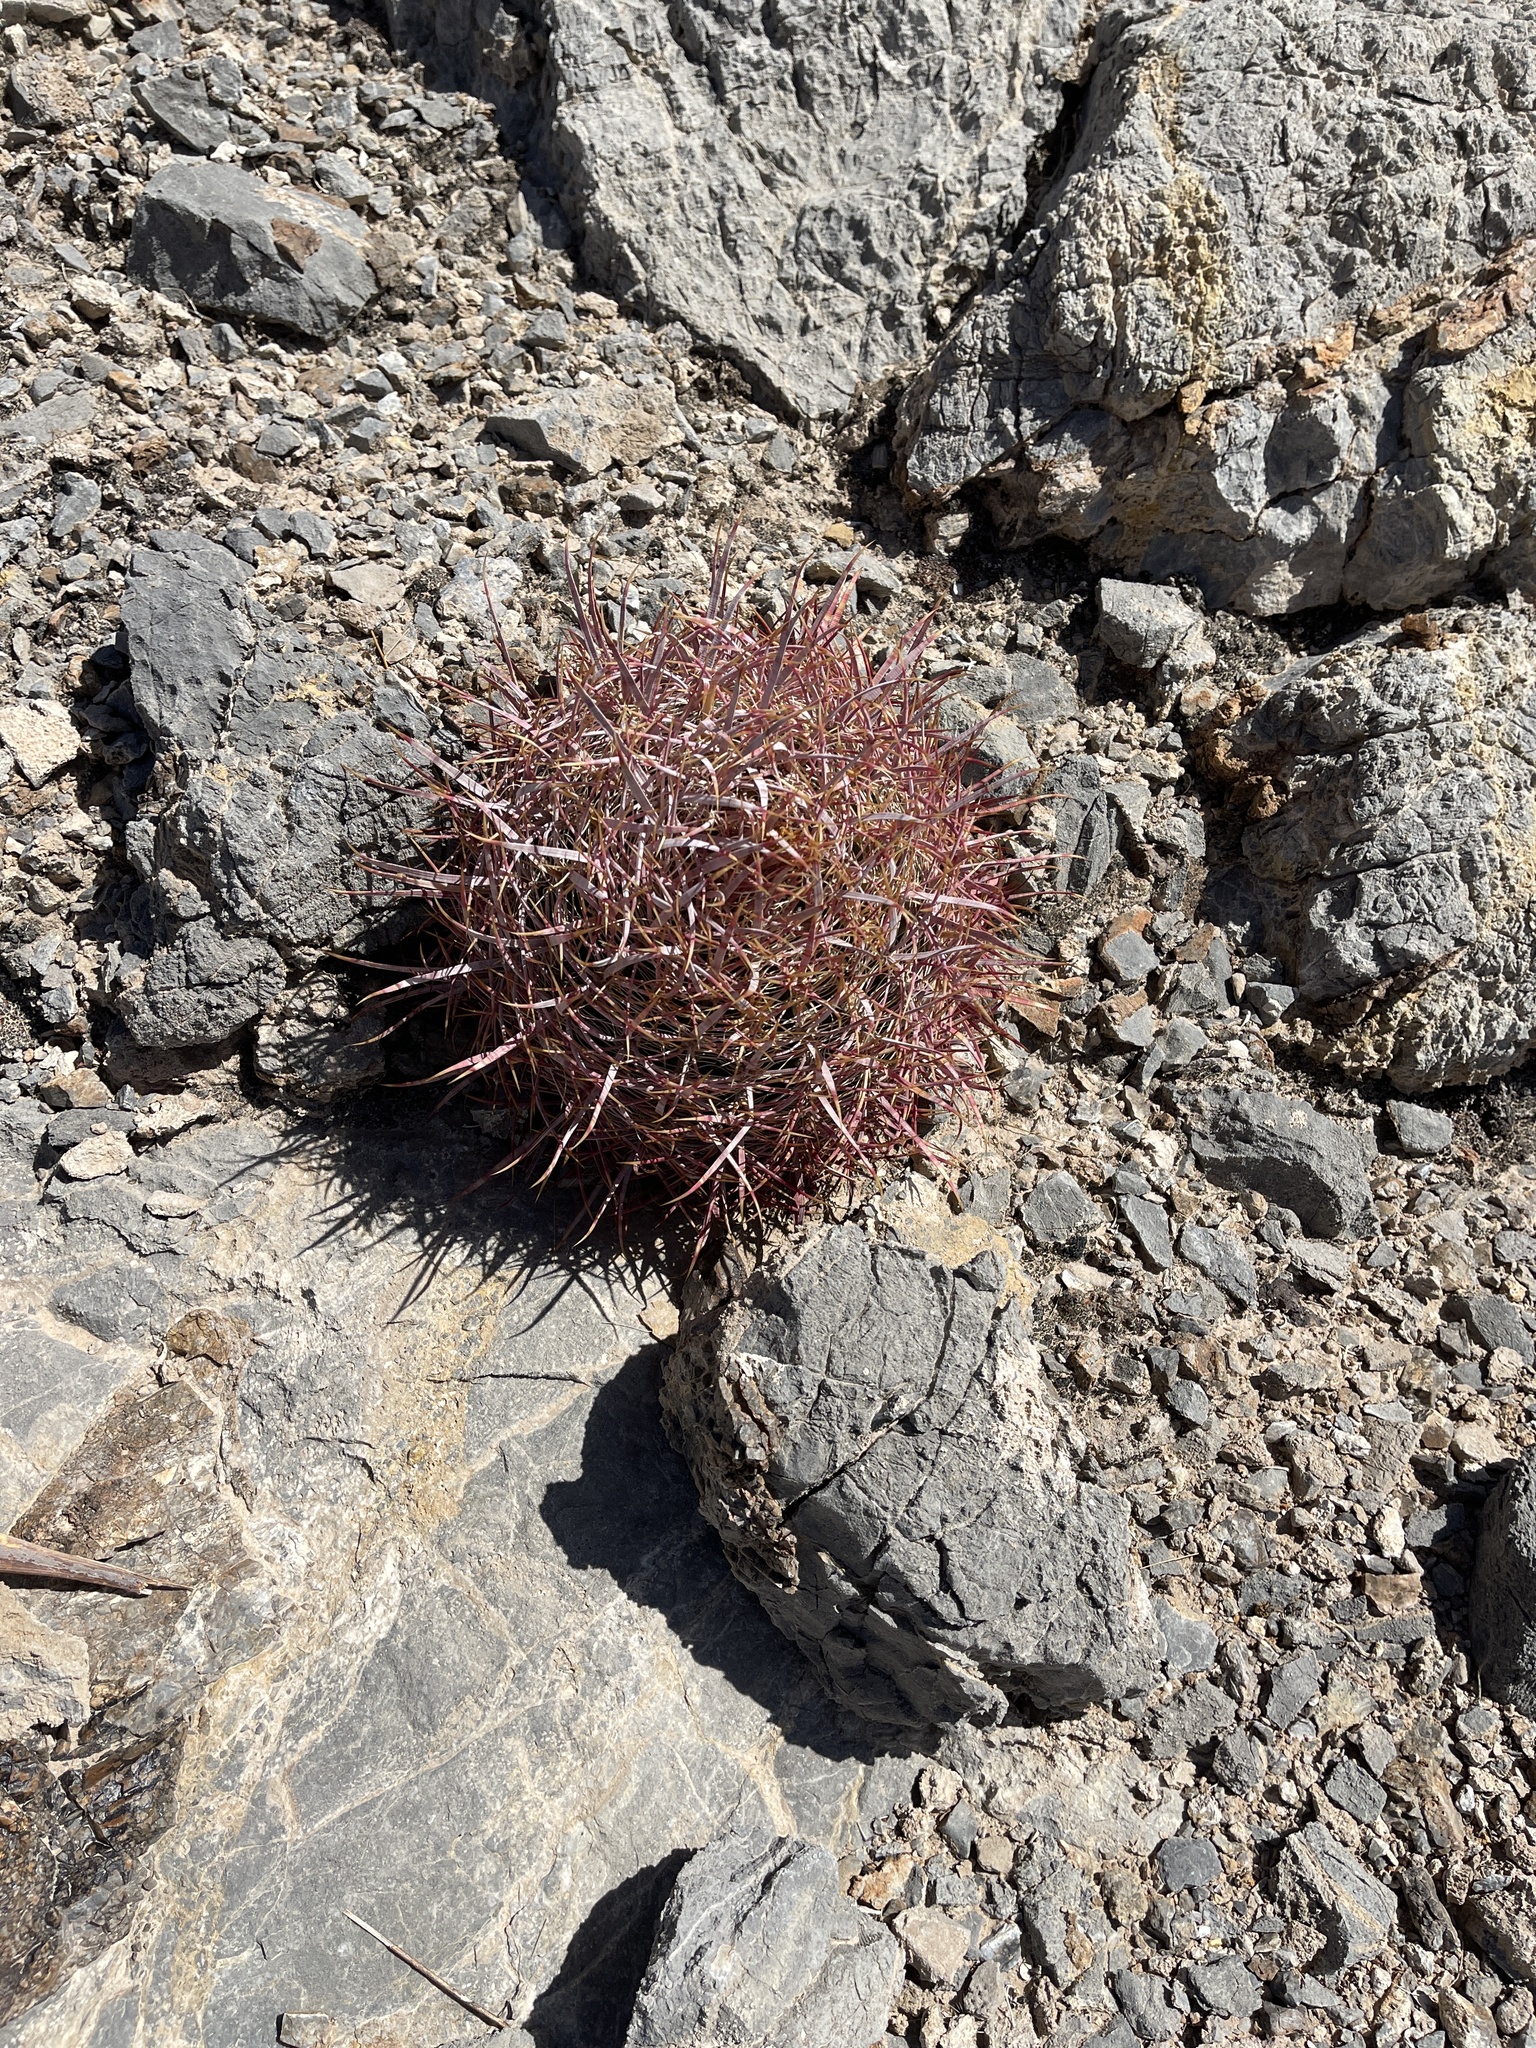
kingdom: Plantae
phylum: Tracheophyta
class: Magnoliopsida
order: Caryophyllales
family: Cactaceae
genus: Ferocactus
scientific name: Ferocactus cylindraceus
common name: California barrel cactus
